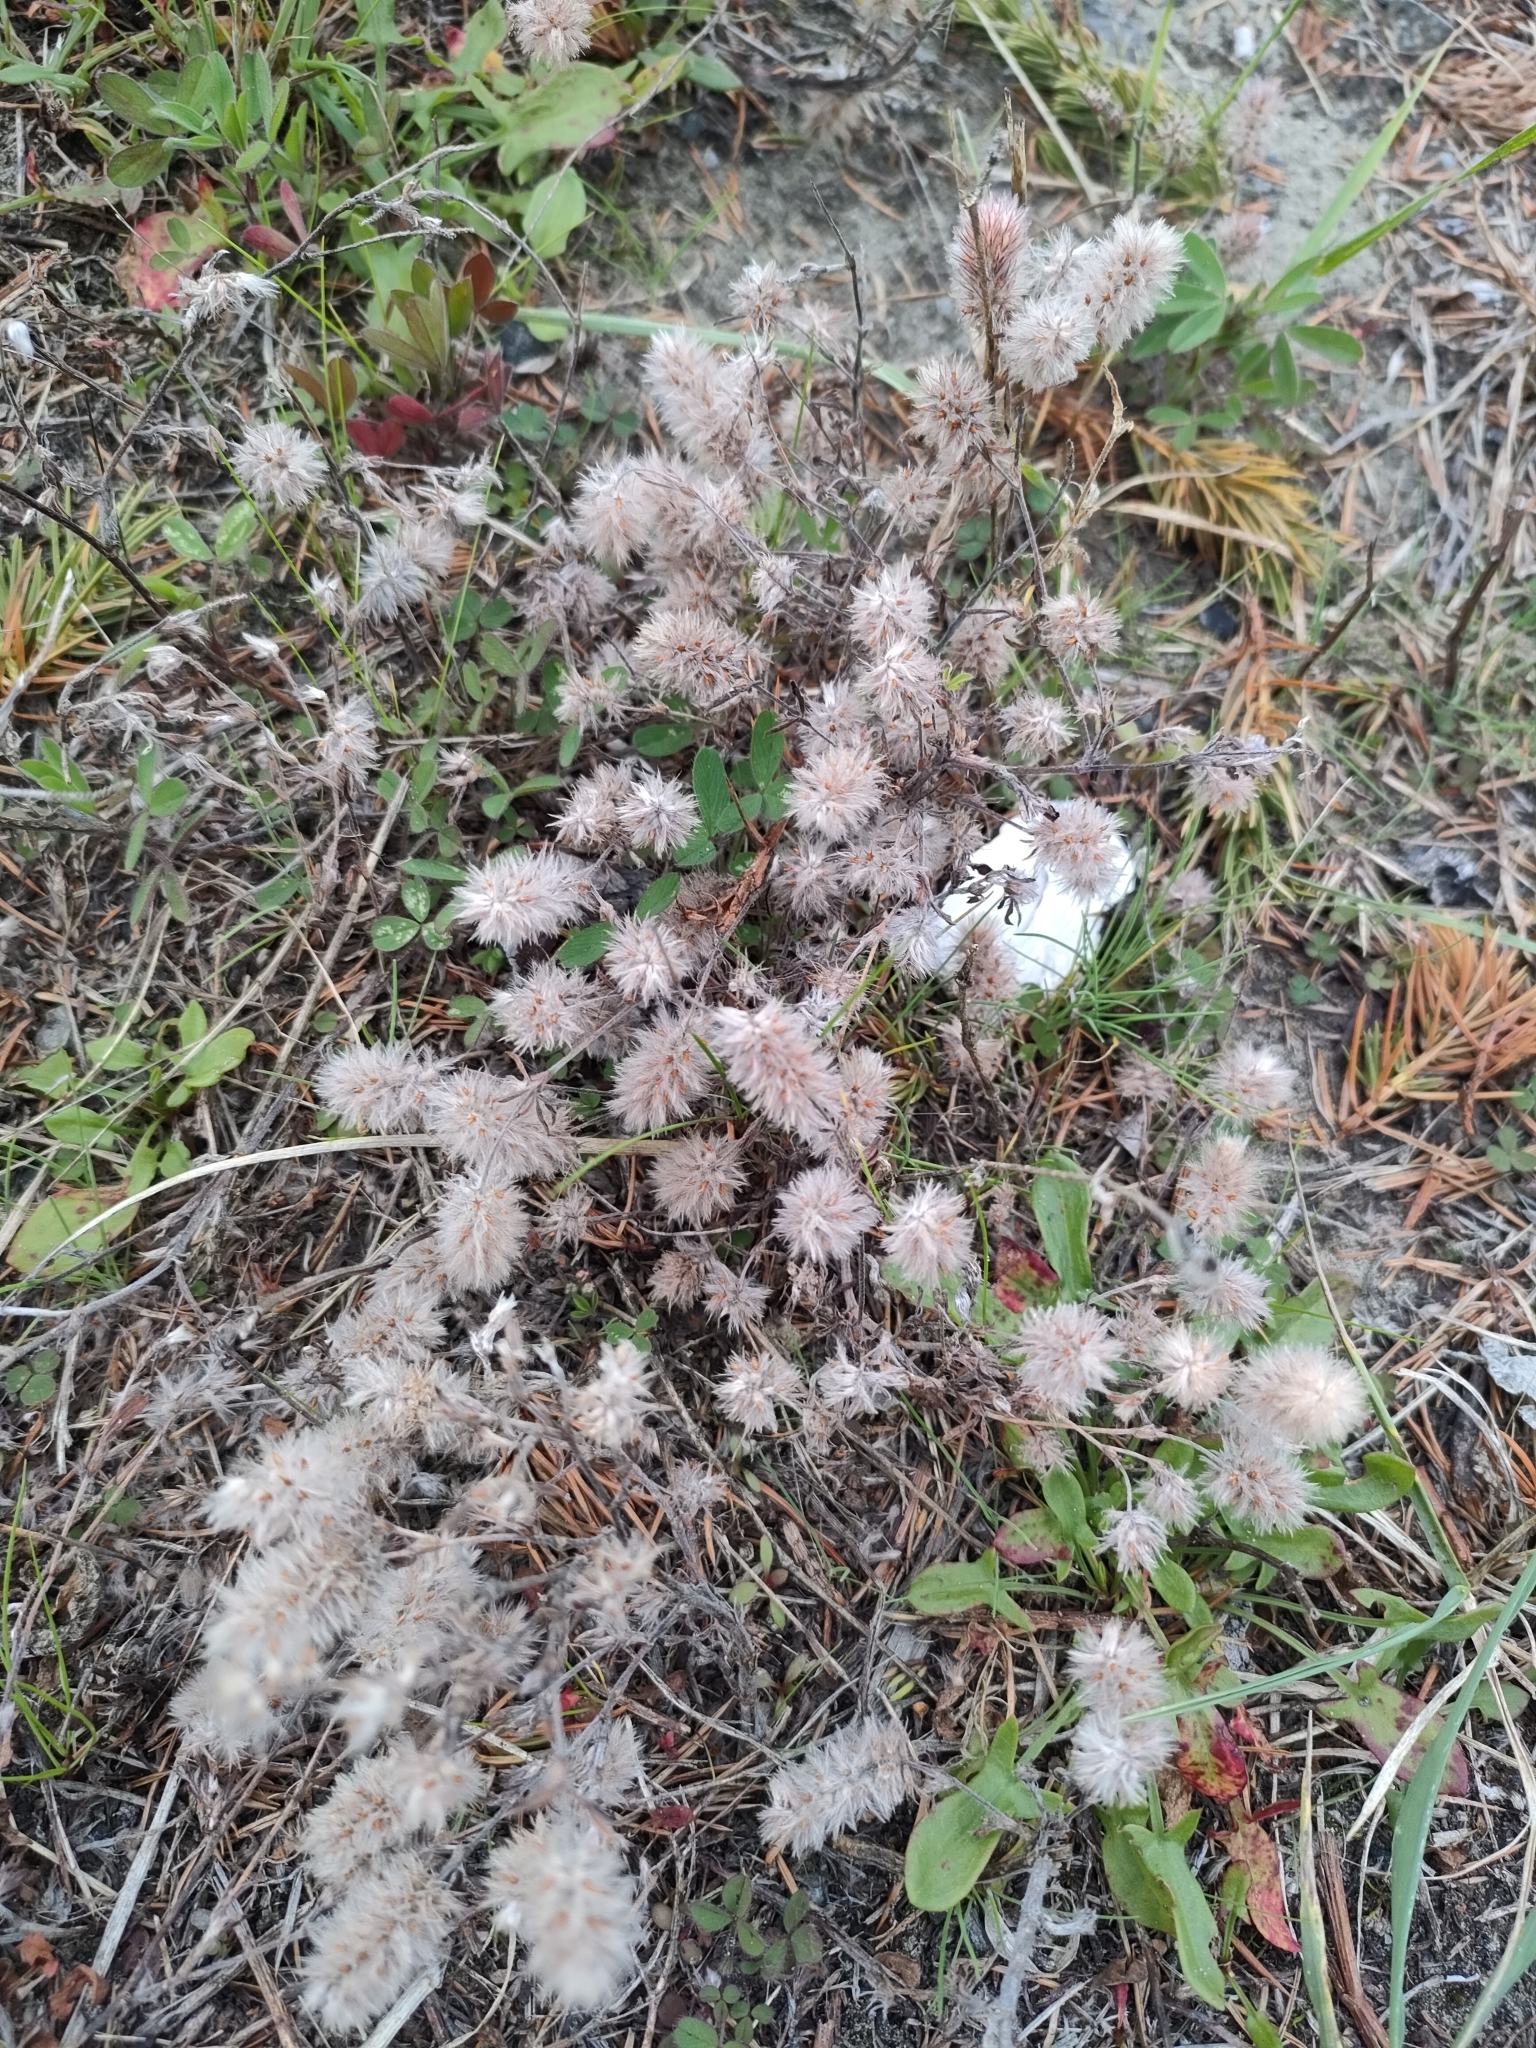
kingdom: Plantae
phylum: Tracheophyta
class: Magnoliopsida
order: Fabales
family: Fabaceae
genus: Trifolium
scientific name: Trifolium arvense
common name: Hare's-foot clover
